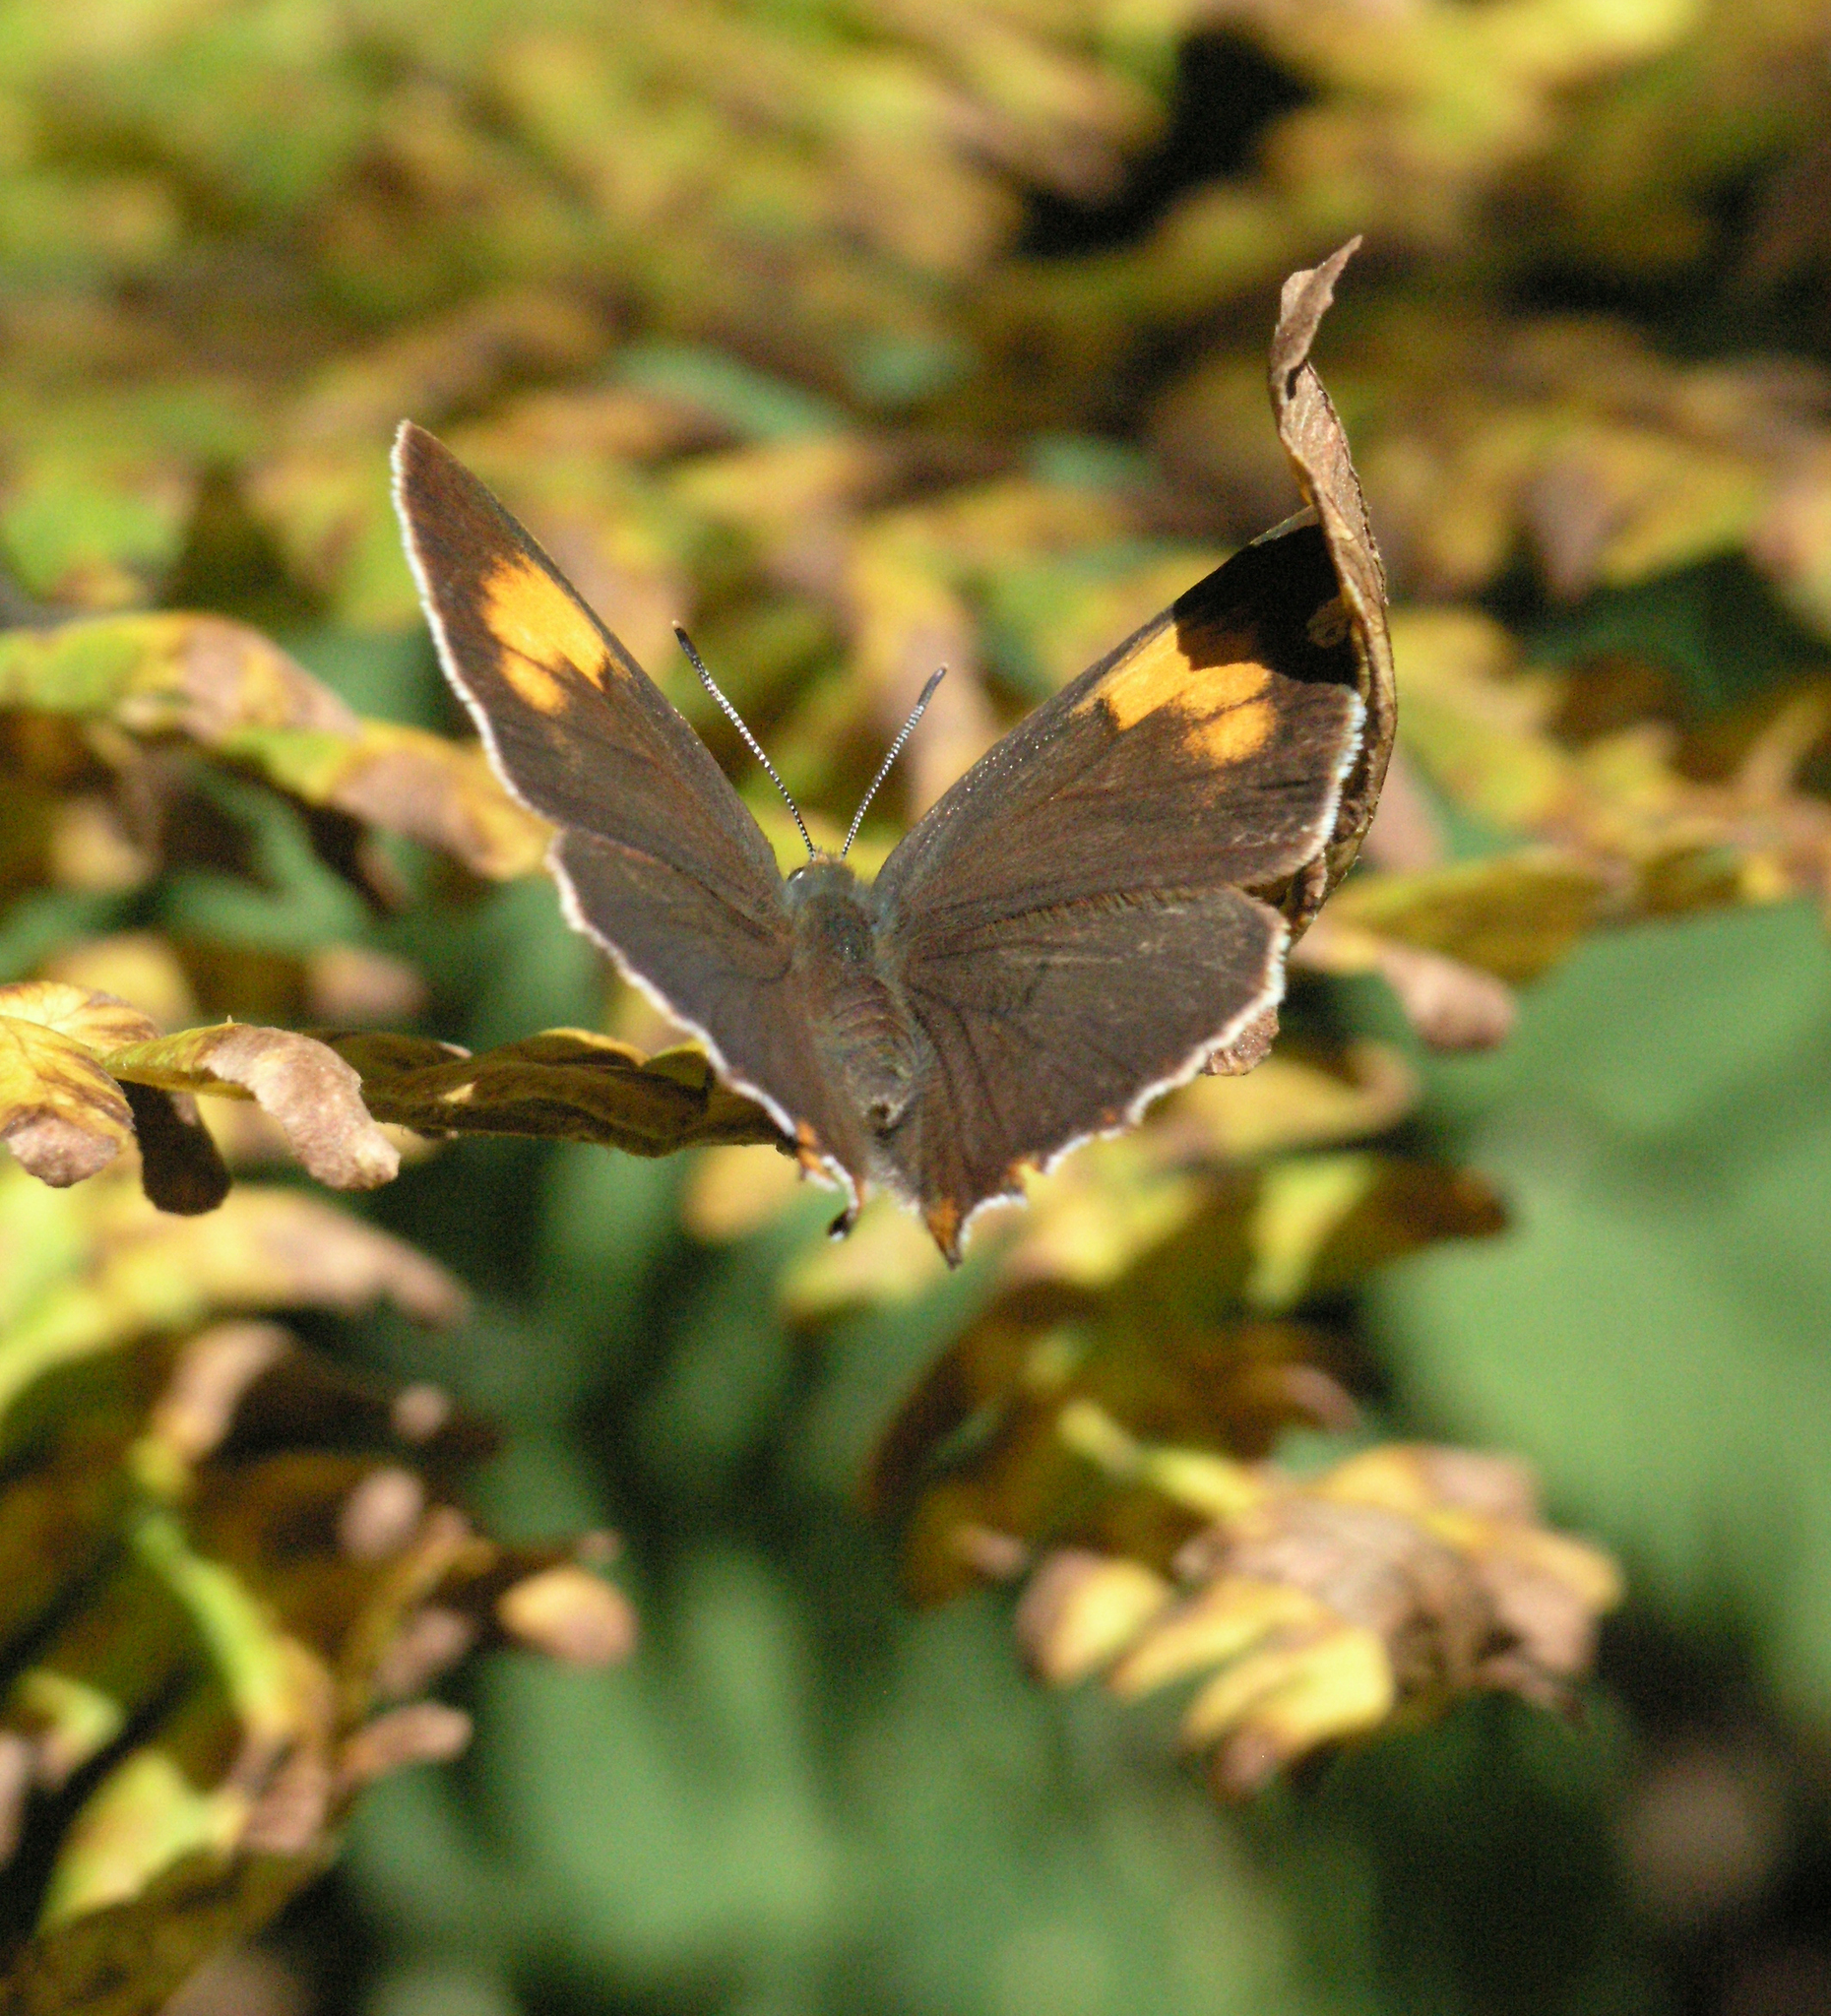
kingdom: Animalia
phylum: Arthropoda
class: Insecta
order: Lepidoptera
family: Lycaenidae
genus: Thecla
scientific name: Thecla betulae
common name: Brown hairstreak
